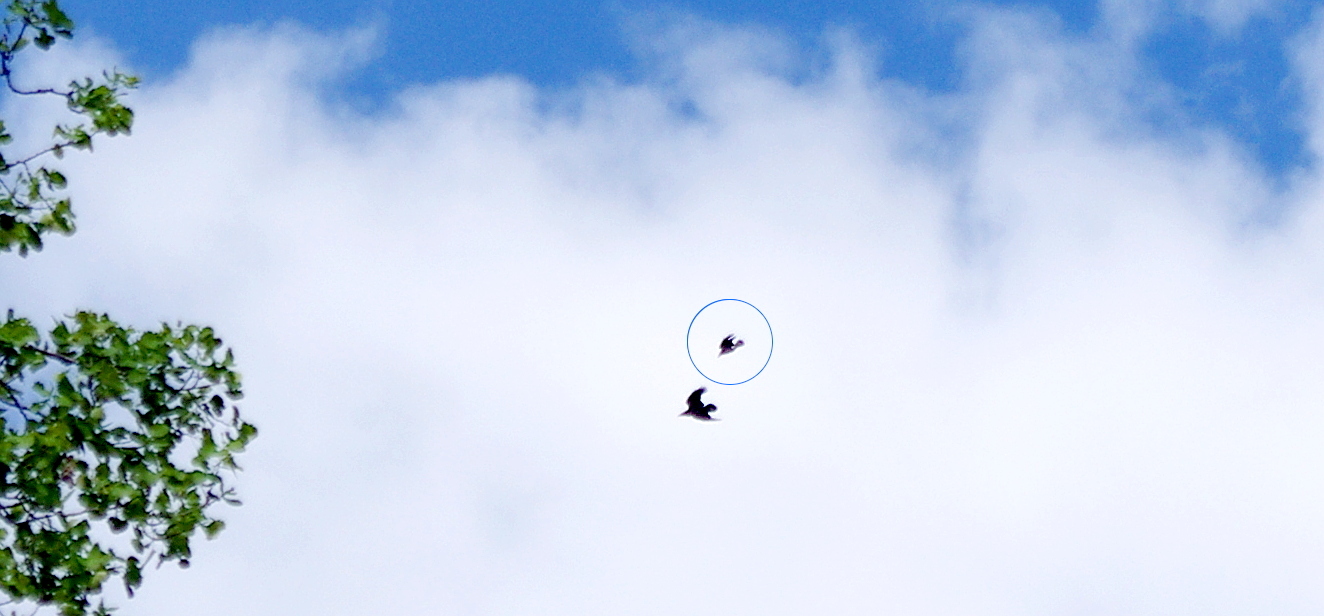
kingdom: Animalia
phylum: Chordata
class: Aves
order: Passeriformes
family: Corvidae
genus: Corvus
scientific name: Corvus cornix
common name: Hooded crow
